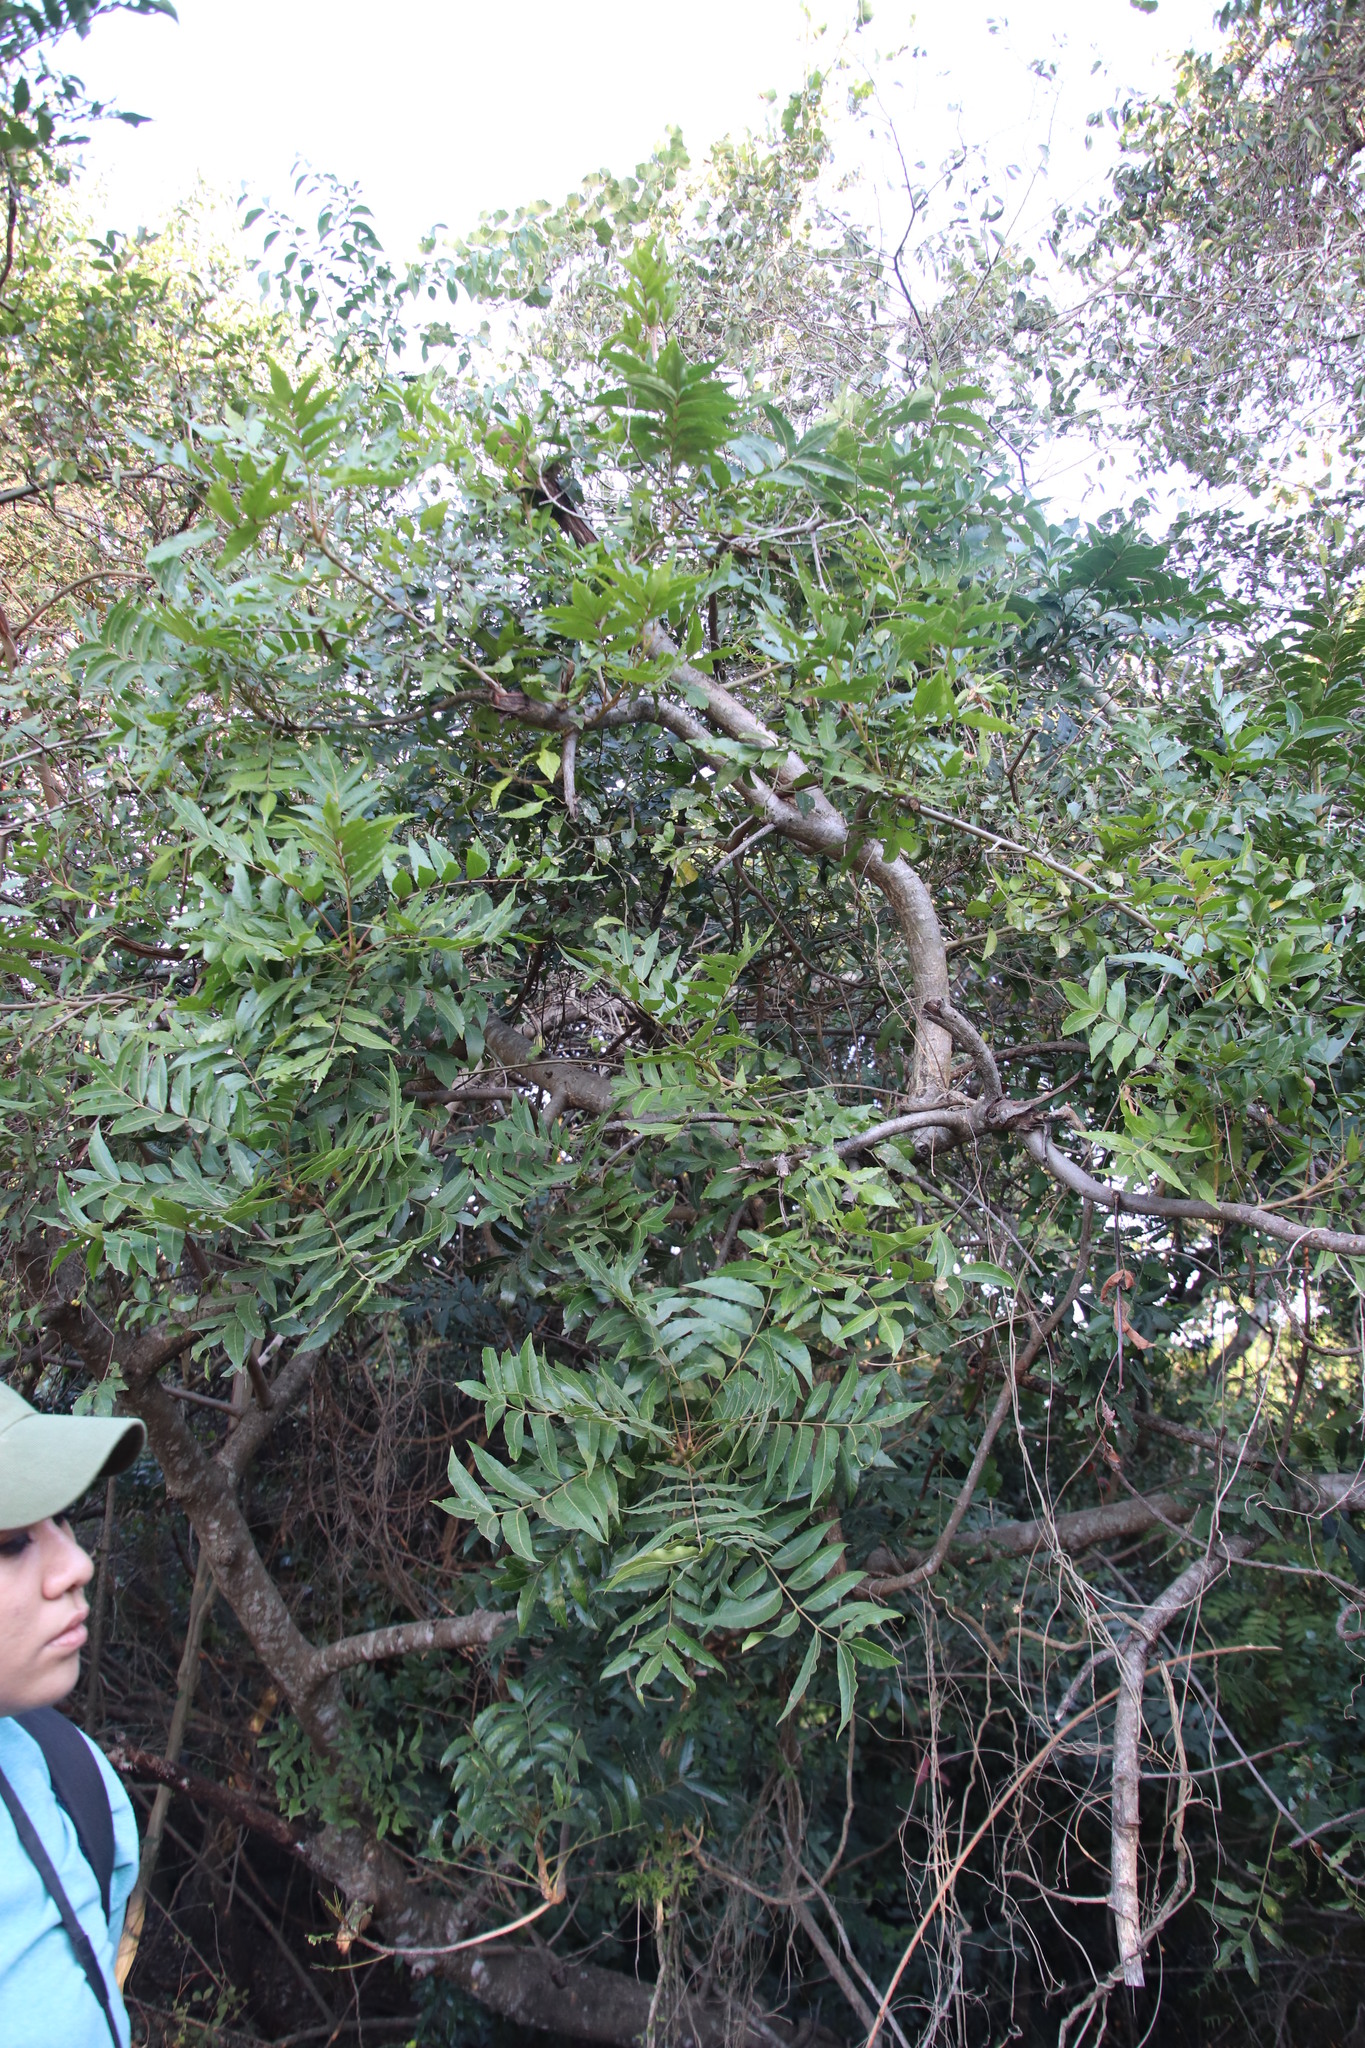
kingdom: Plantae
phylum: Tracheophyta
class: Magnoliopsida
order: Sapindales
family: Anacardiaceae
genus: Harpephyllum
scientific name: Harpephyllum caffrum
